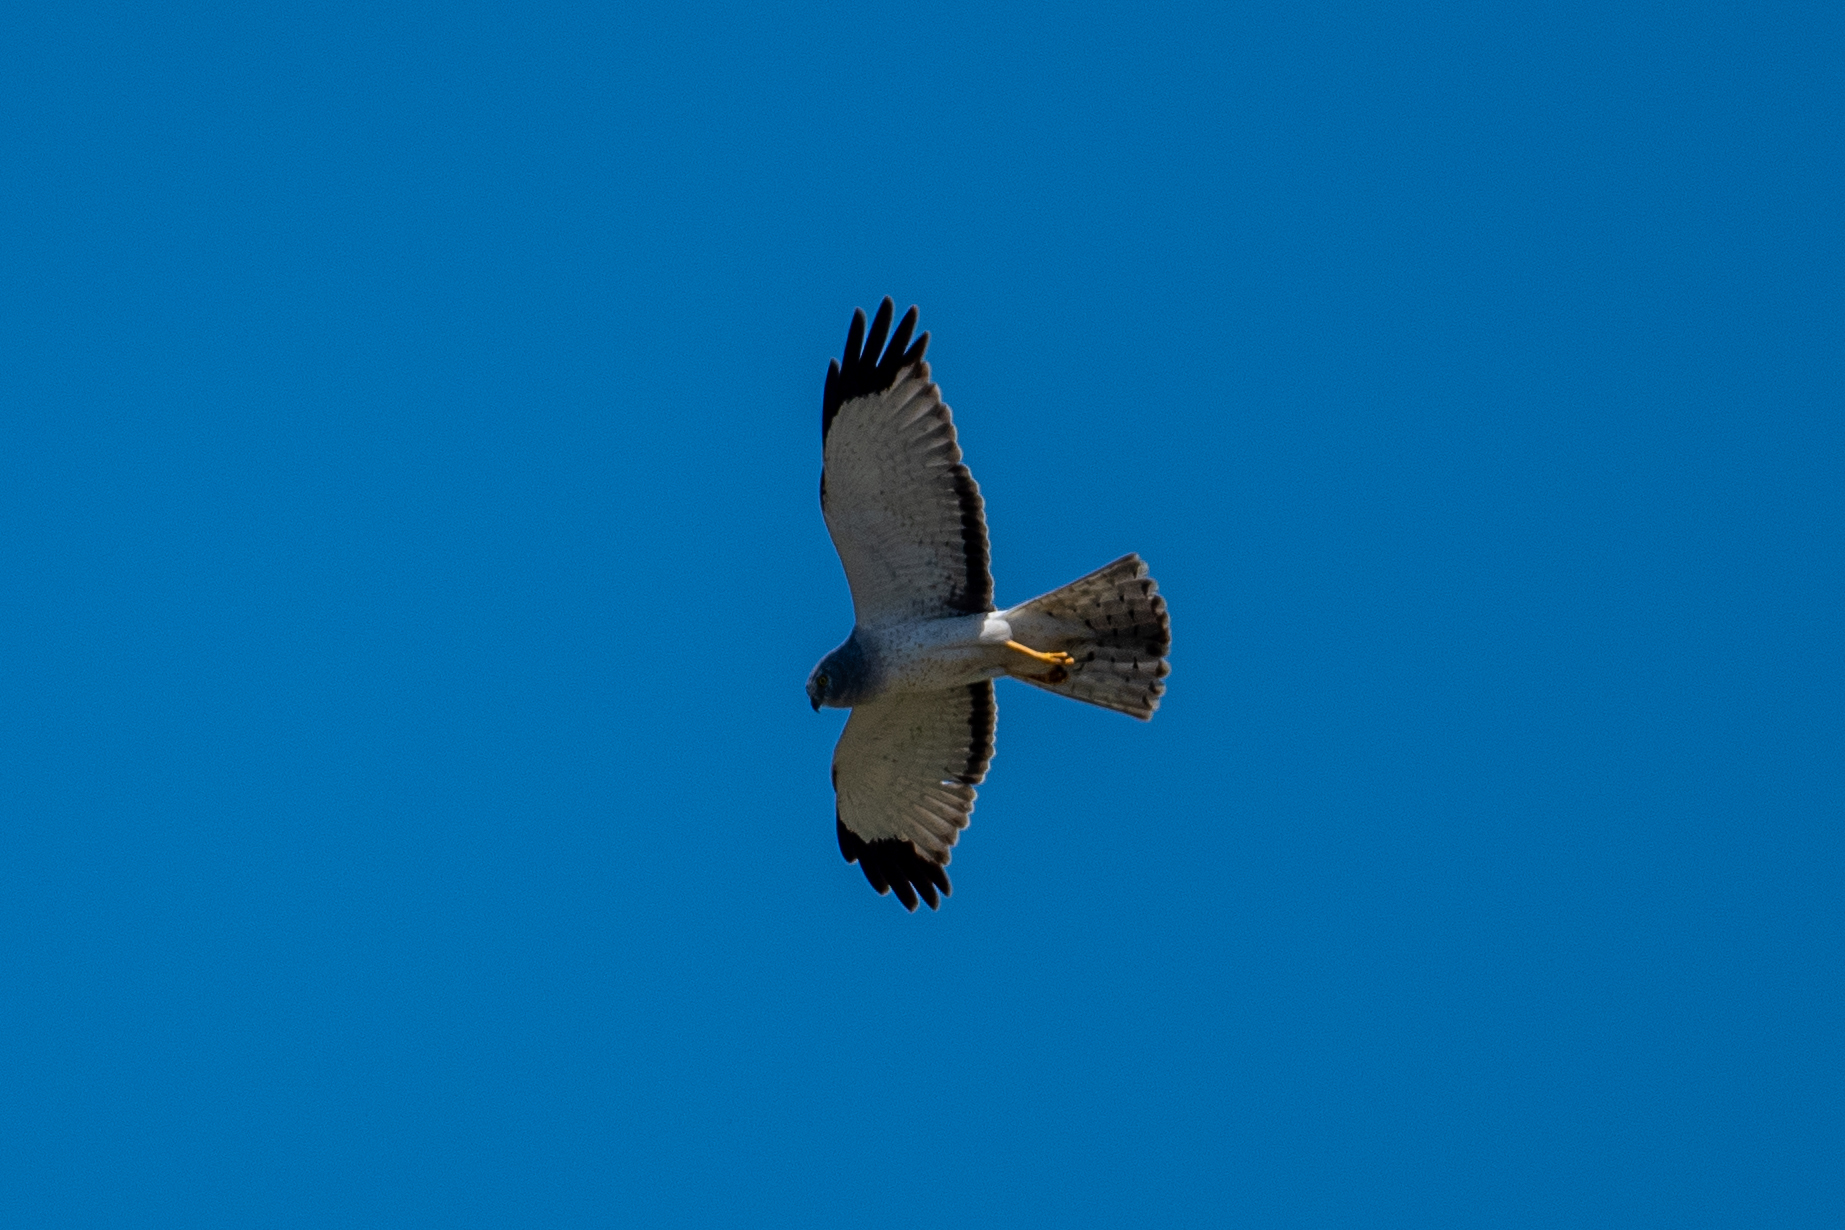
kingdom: Animalia
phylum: Chordata
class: Aves
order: Accipitriformes
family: Accipitridae
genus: Circus
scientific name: Circus cyaneus
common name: Hen harrier
